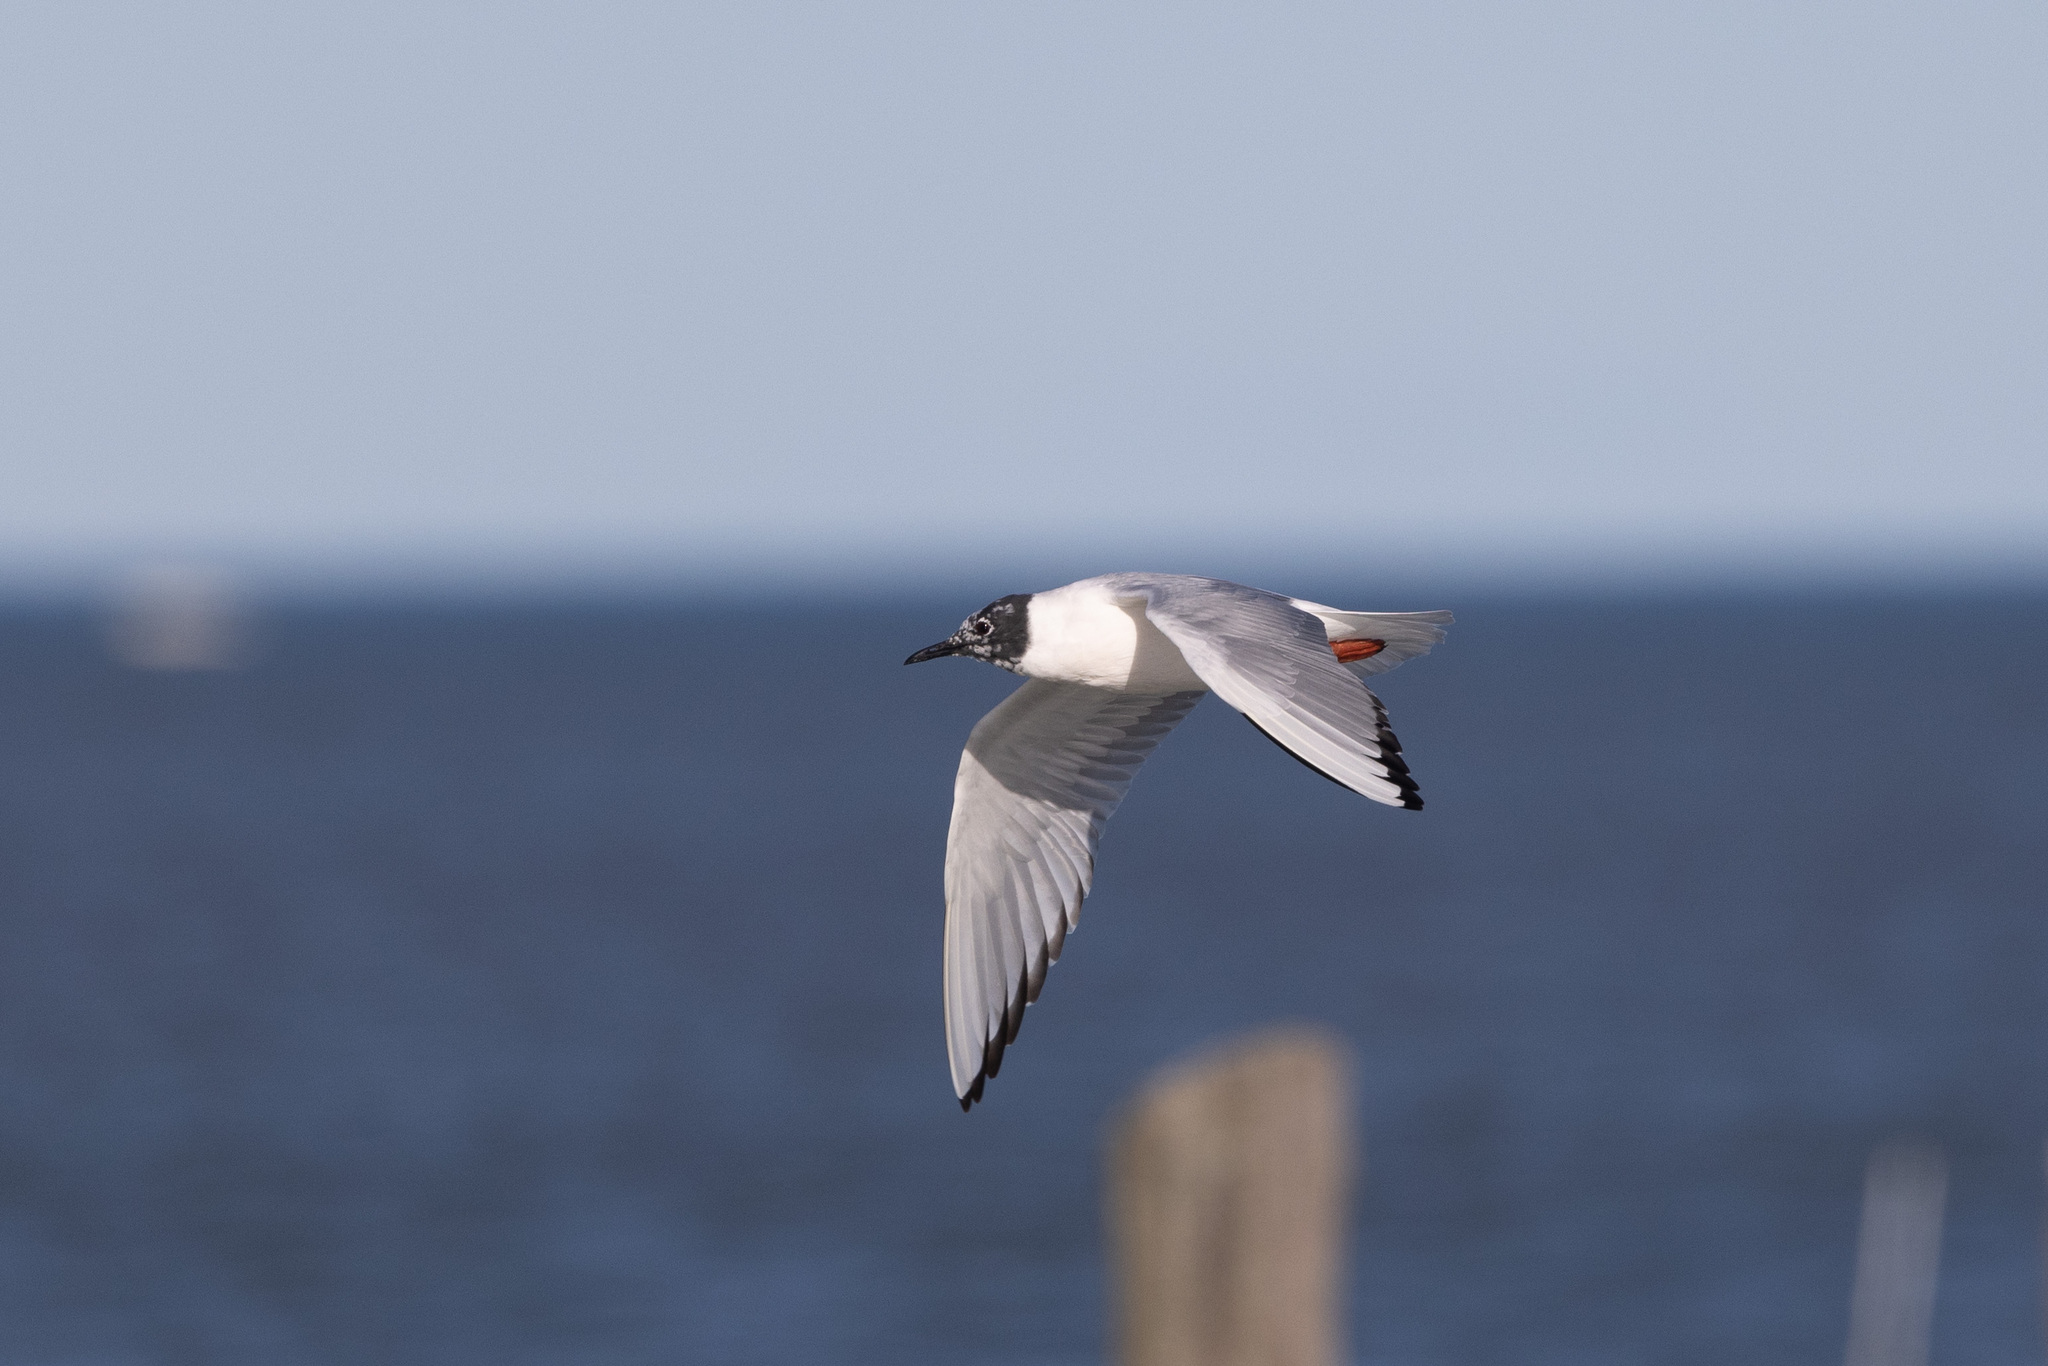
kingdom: Animalia
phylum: Chordata
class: Aves
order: Charadriiformes
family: Laridae
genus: Chroicocephalus
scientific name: Chroicocephalus philadelphia
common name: Bonaparte's gull
